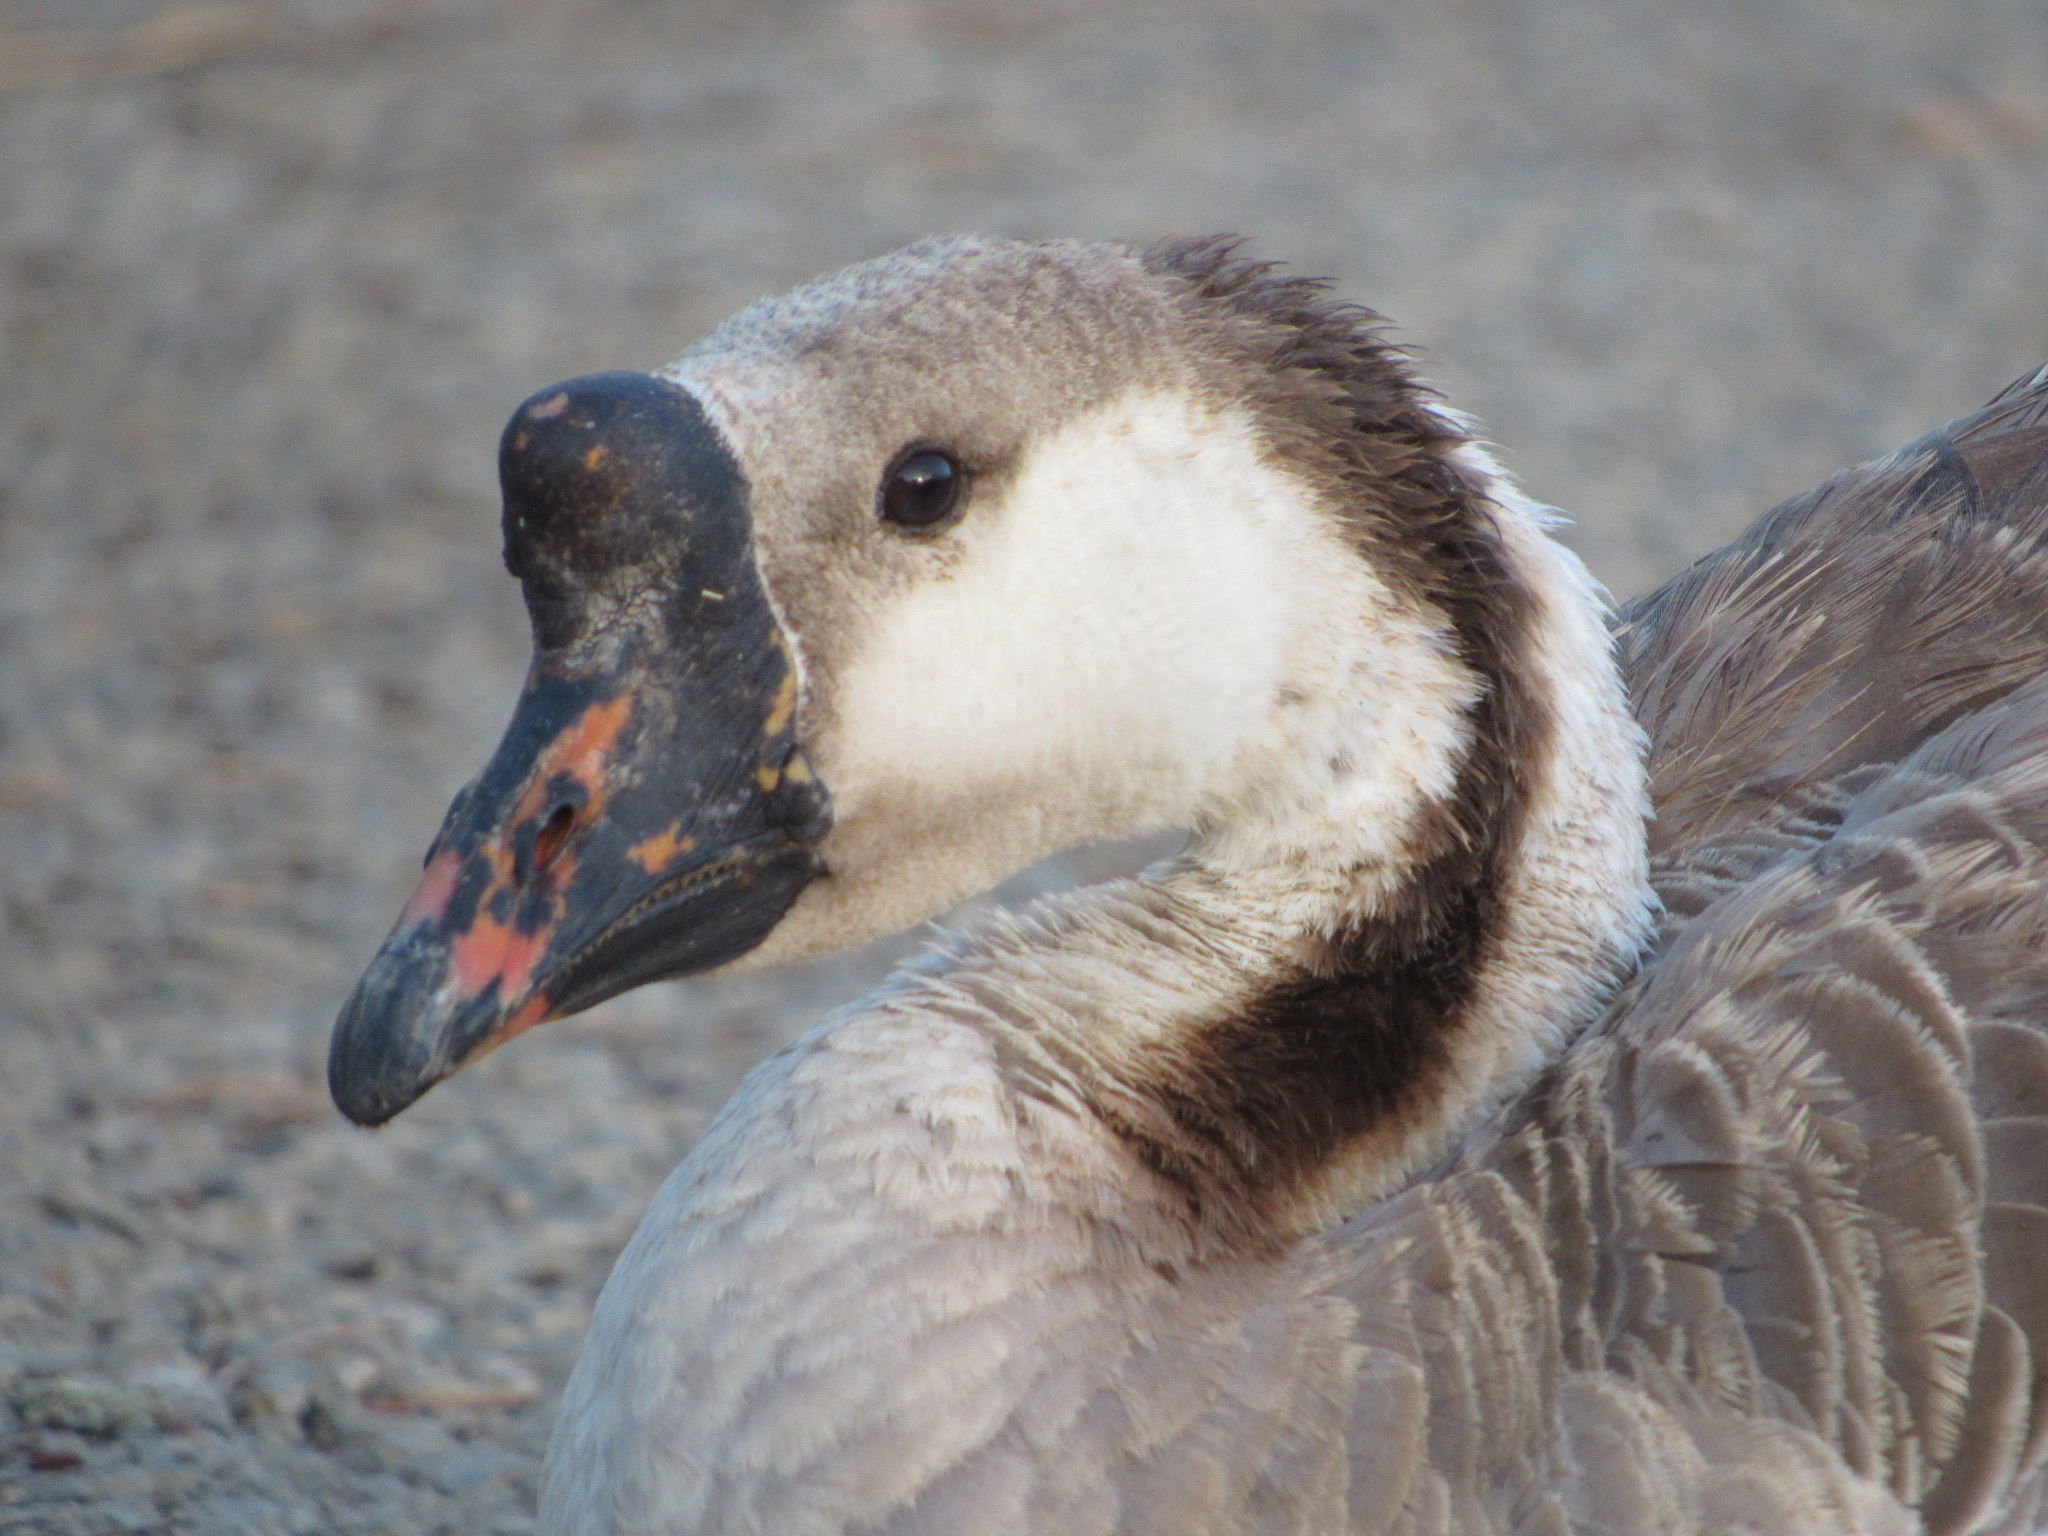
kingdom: Animalia
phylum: Chordata
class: Aves
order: Anseriformes
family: Anatidae
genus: Anser
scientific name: Anser cygnoides
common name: Swan goose
